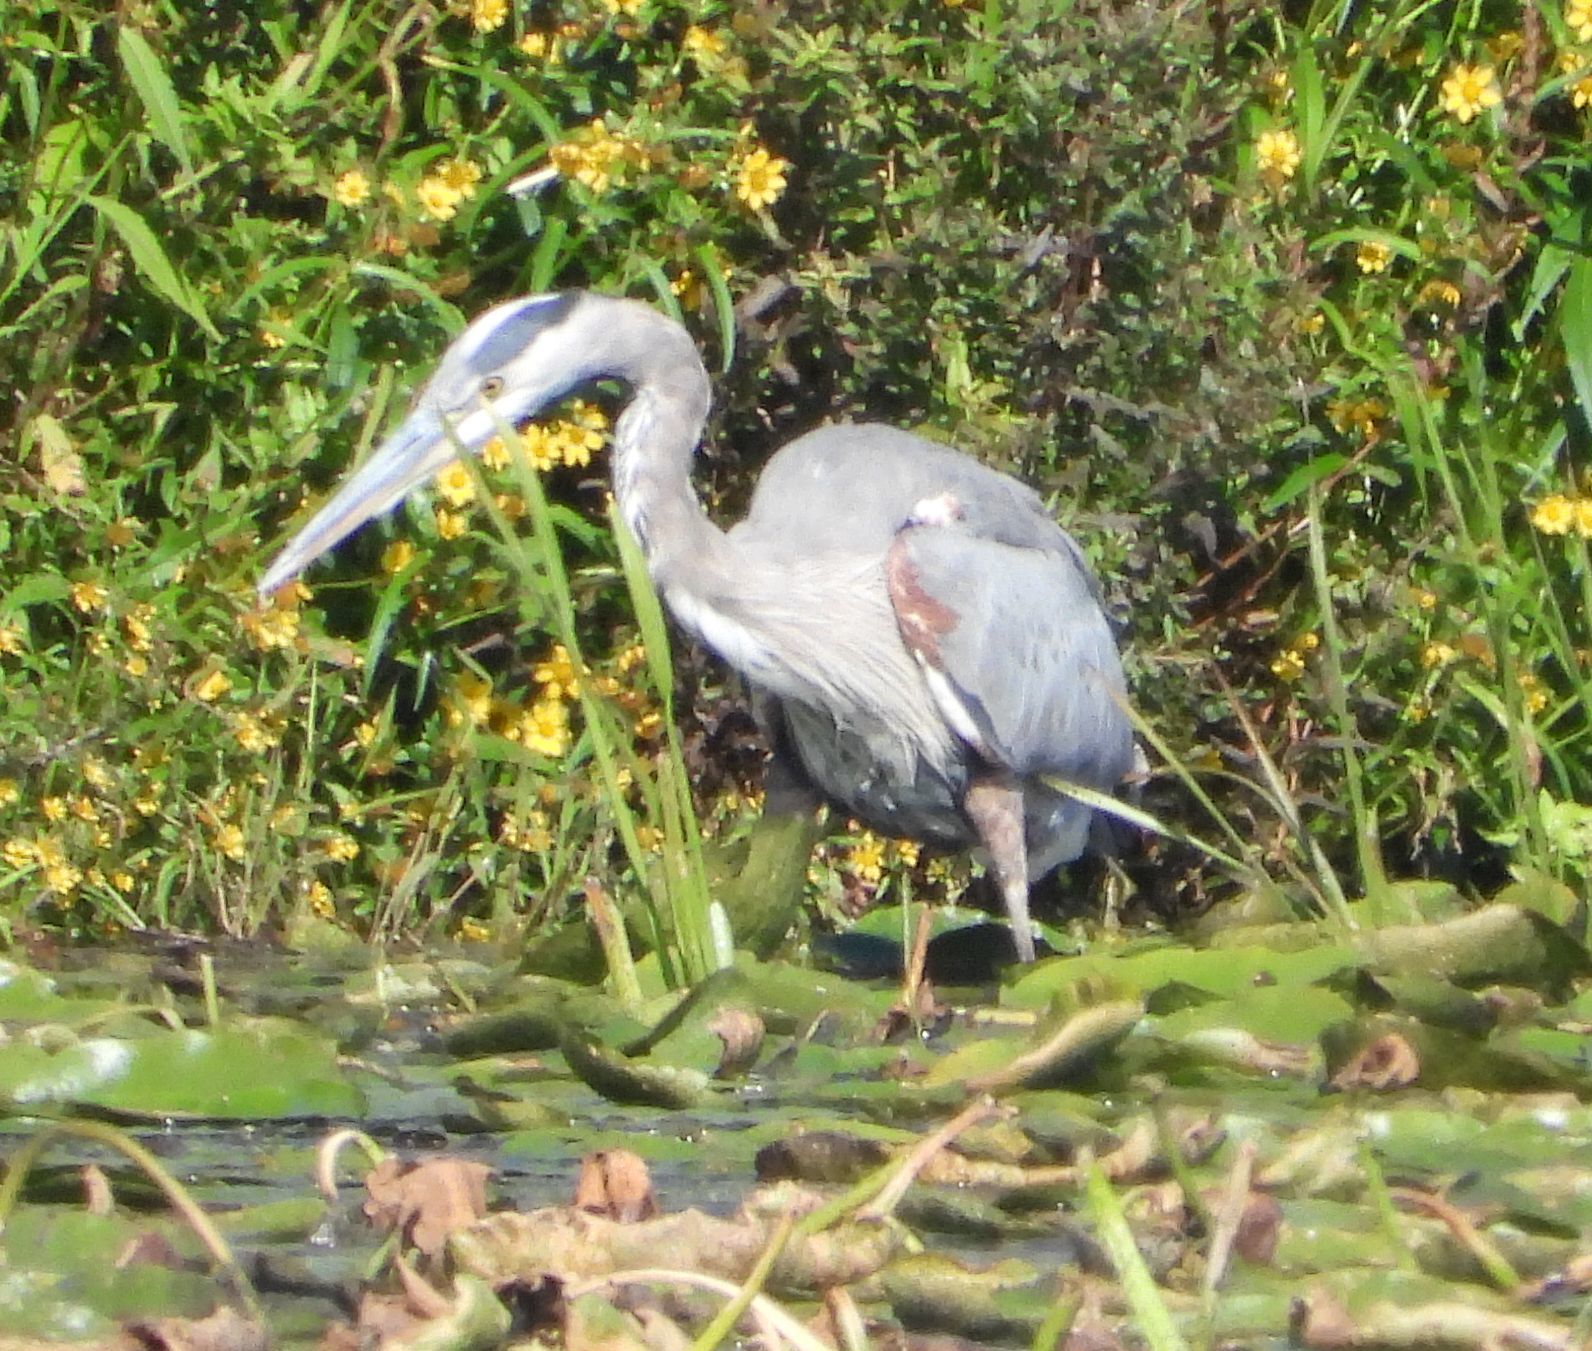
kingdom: Animalia
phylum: Chordata
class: Aves
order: Pelecaniformes
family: Ardeidae
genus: Ardea
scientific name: Ardea herodias
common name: Great blue heron
